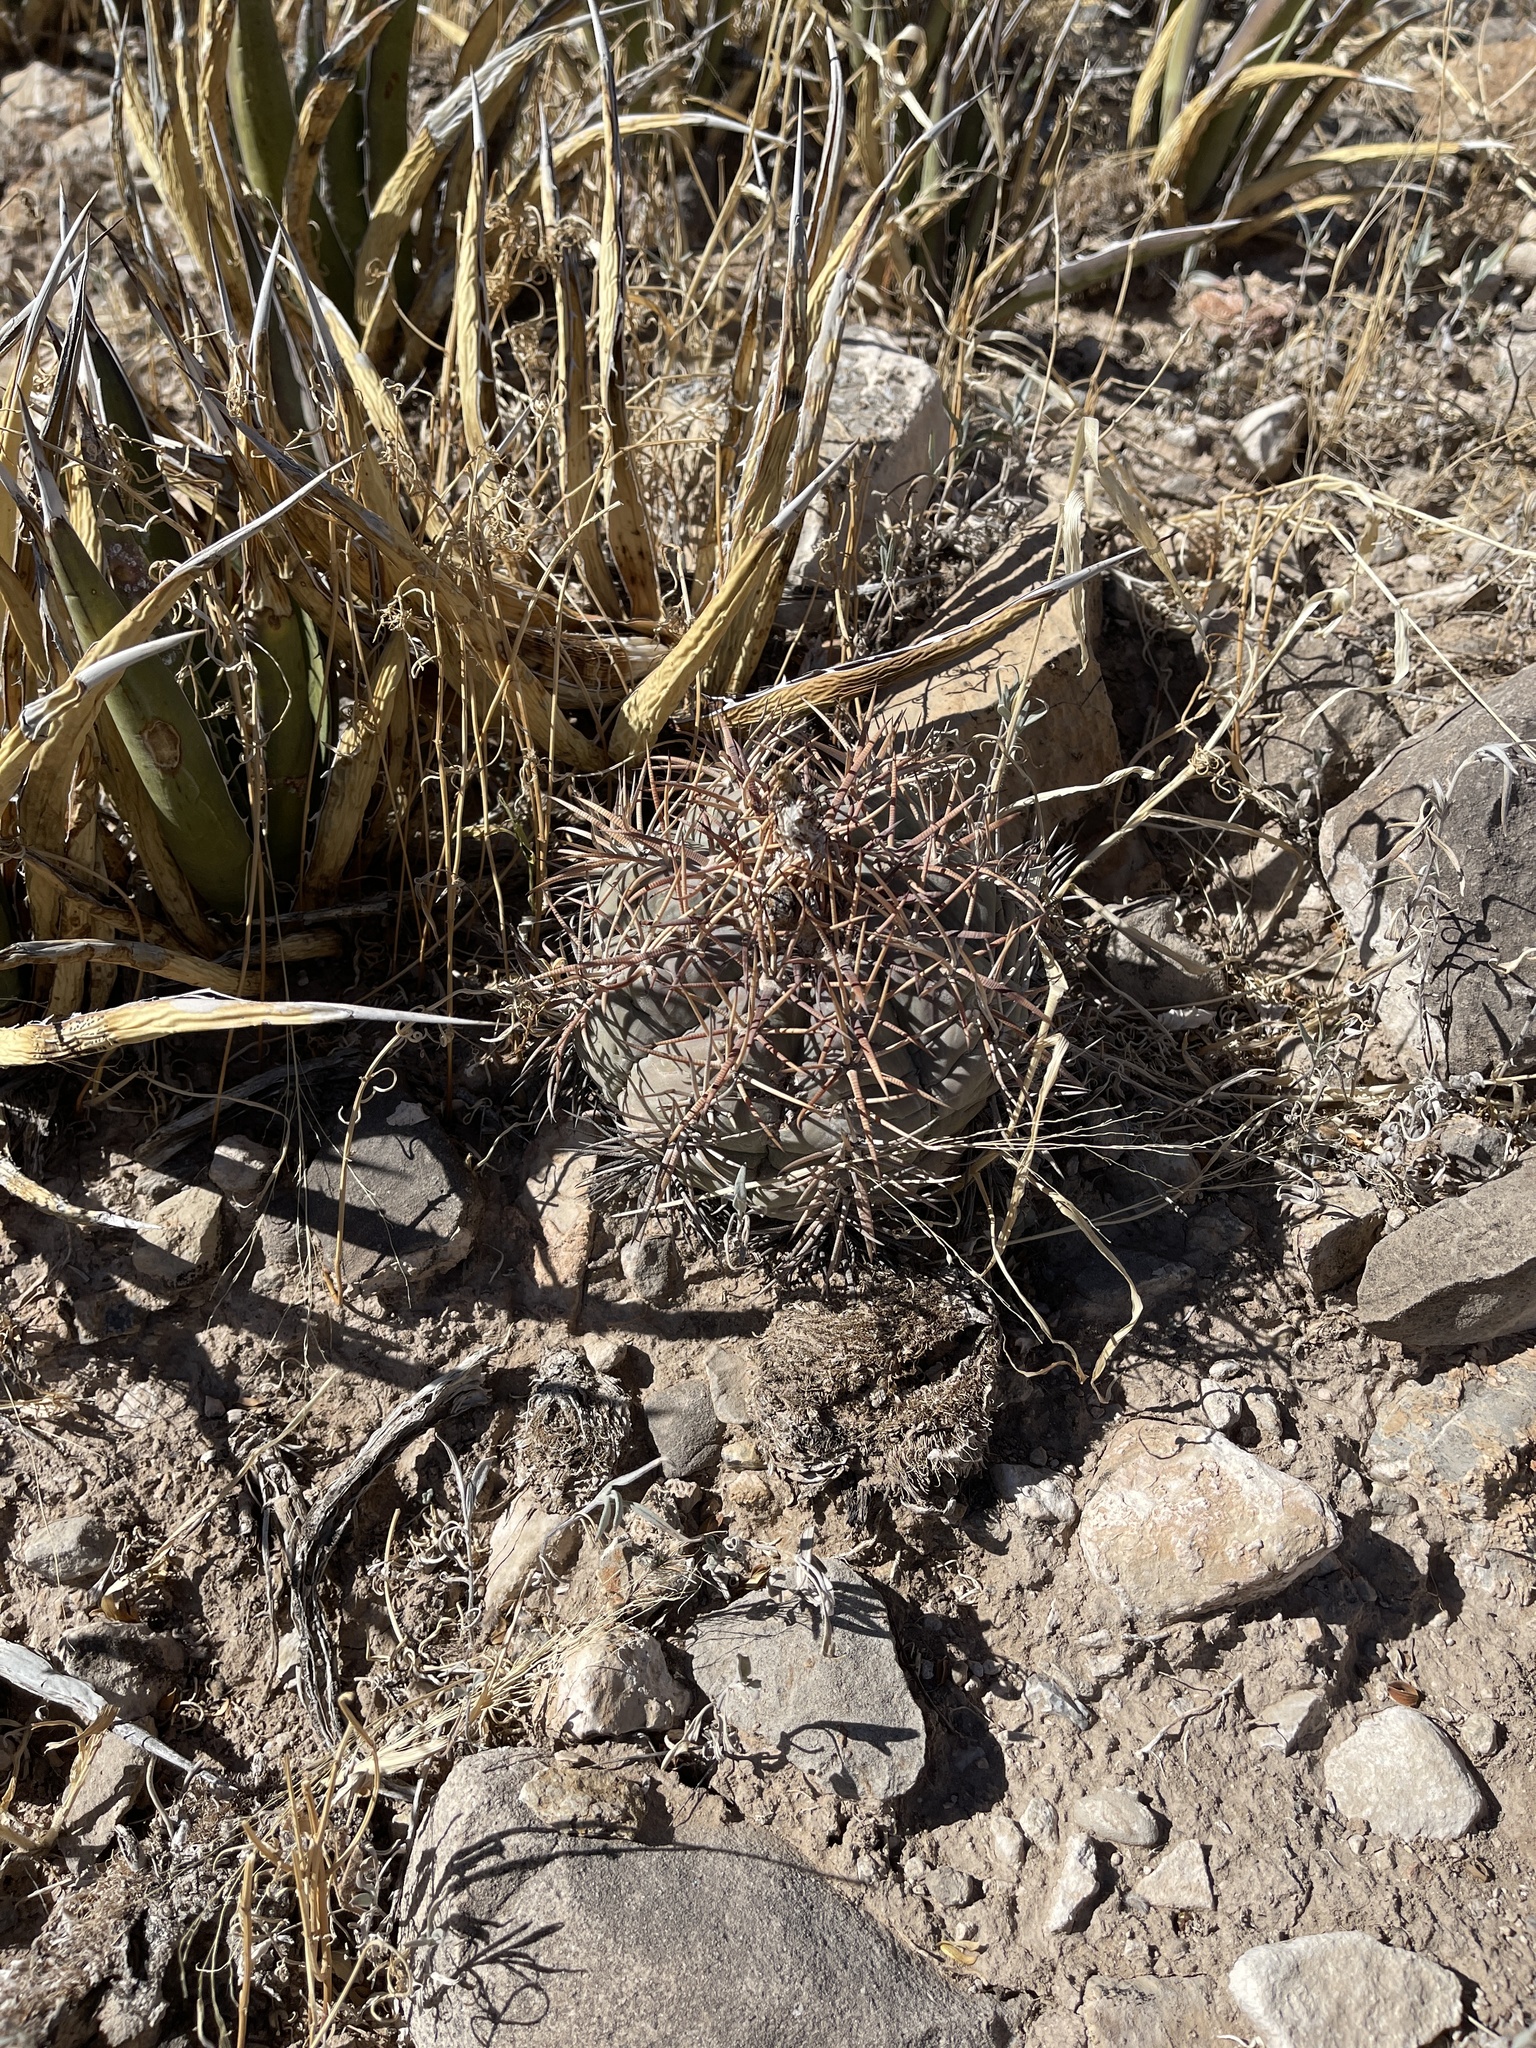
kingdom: Plantae
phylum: Tracheophyta
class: Magnoliopsida
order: Caryophyllales
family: Cactaceae
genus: Echinocactus
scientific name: Echinocactus horizonthalonius
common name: Devilshead
